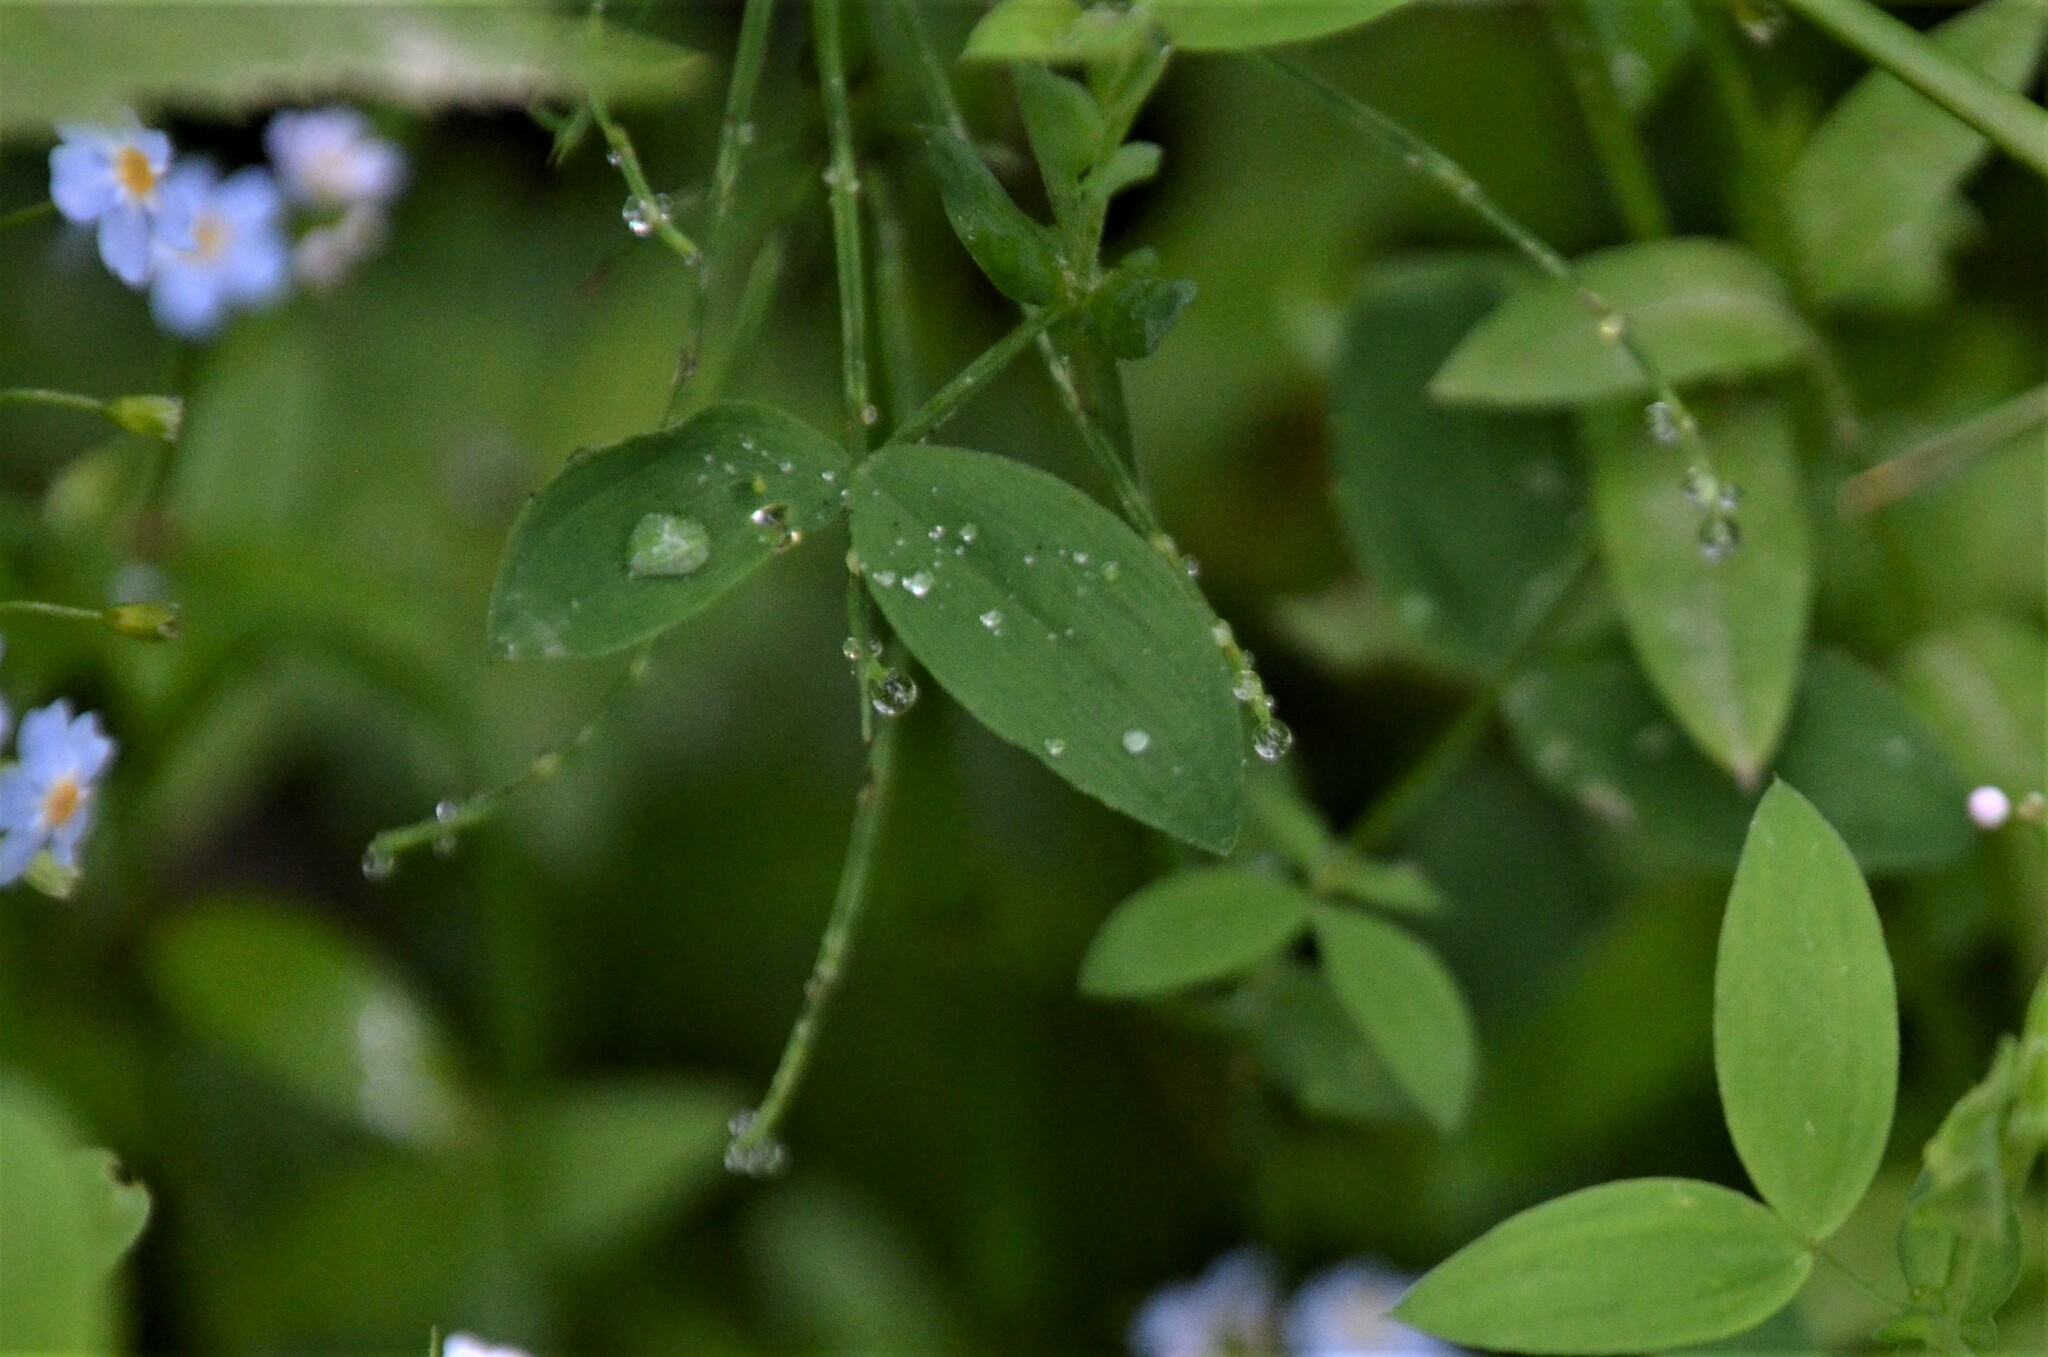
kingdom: Plantae
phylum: Tracheophyta
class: Magnoliopsida
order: Boraginales
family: Boraginaceae
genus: Myosotis
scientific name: Myosotis scorpioides
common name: Water forget-me-not
